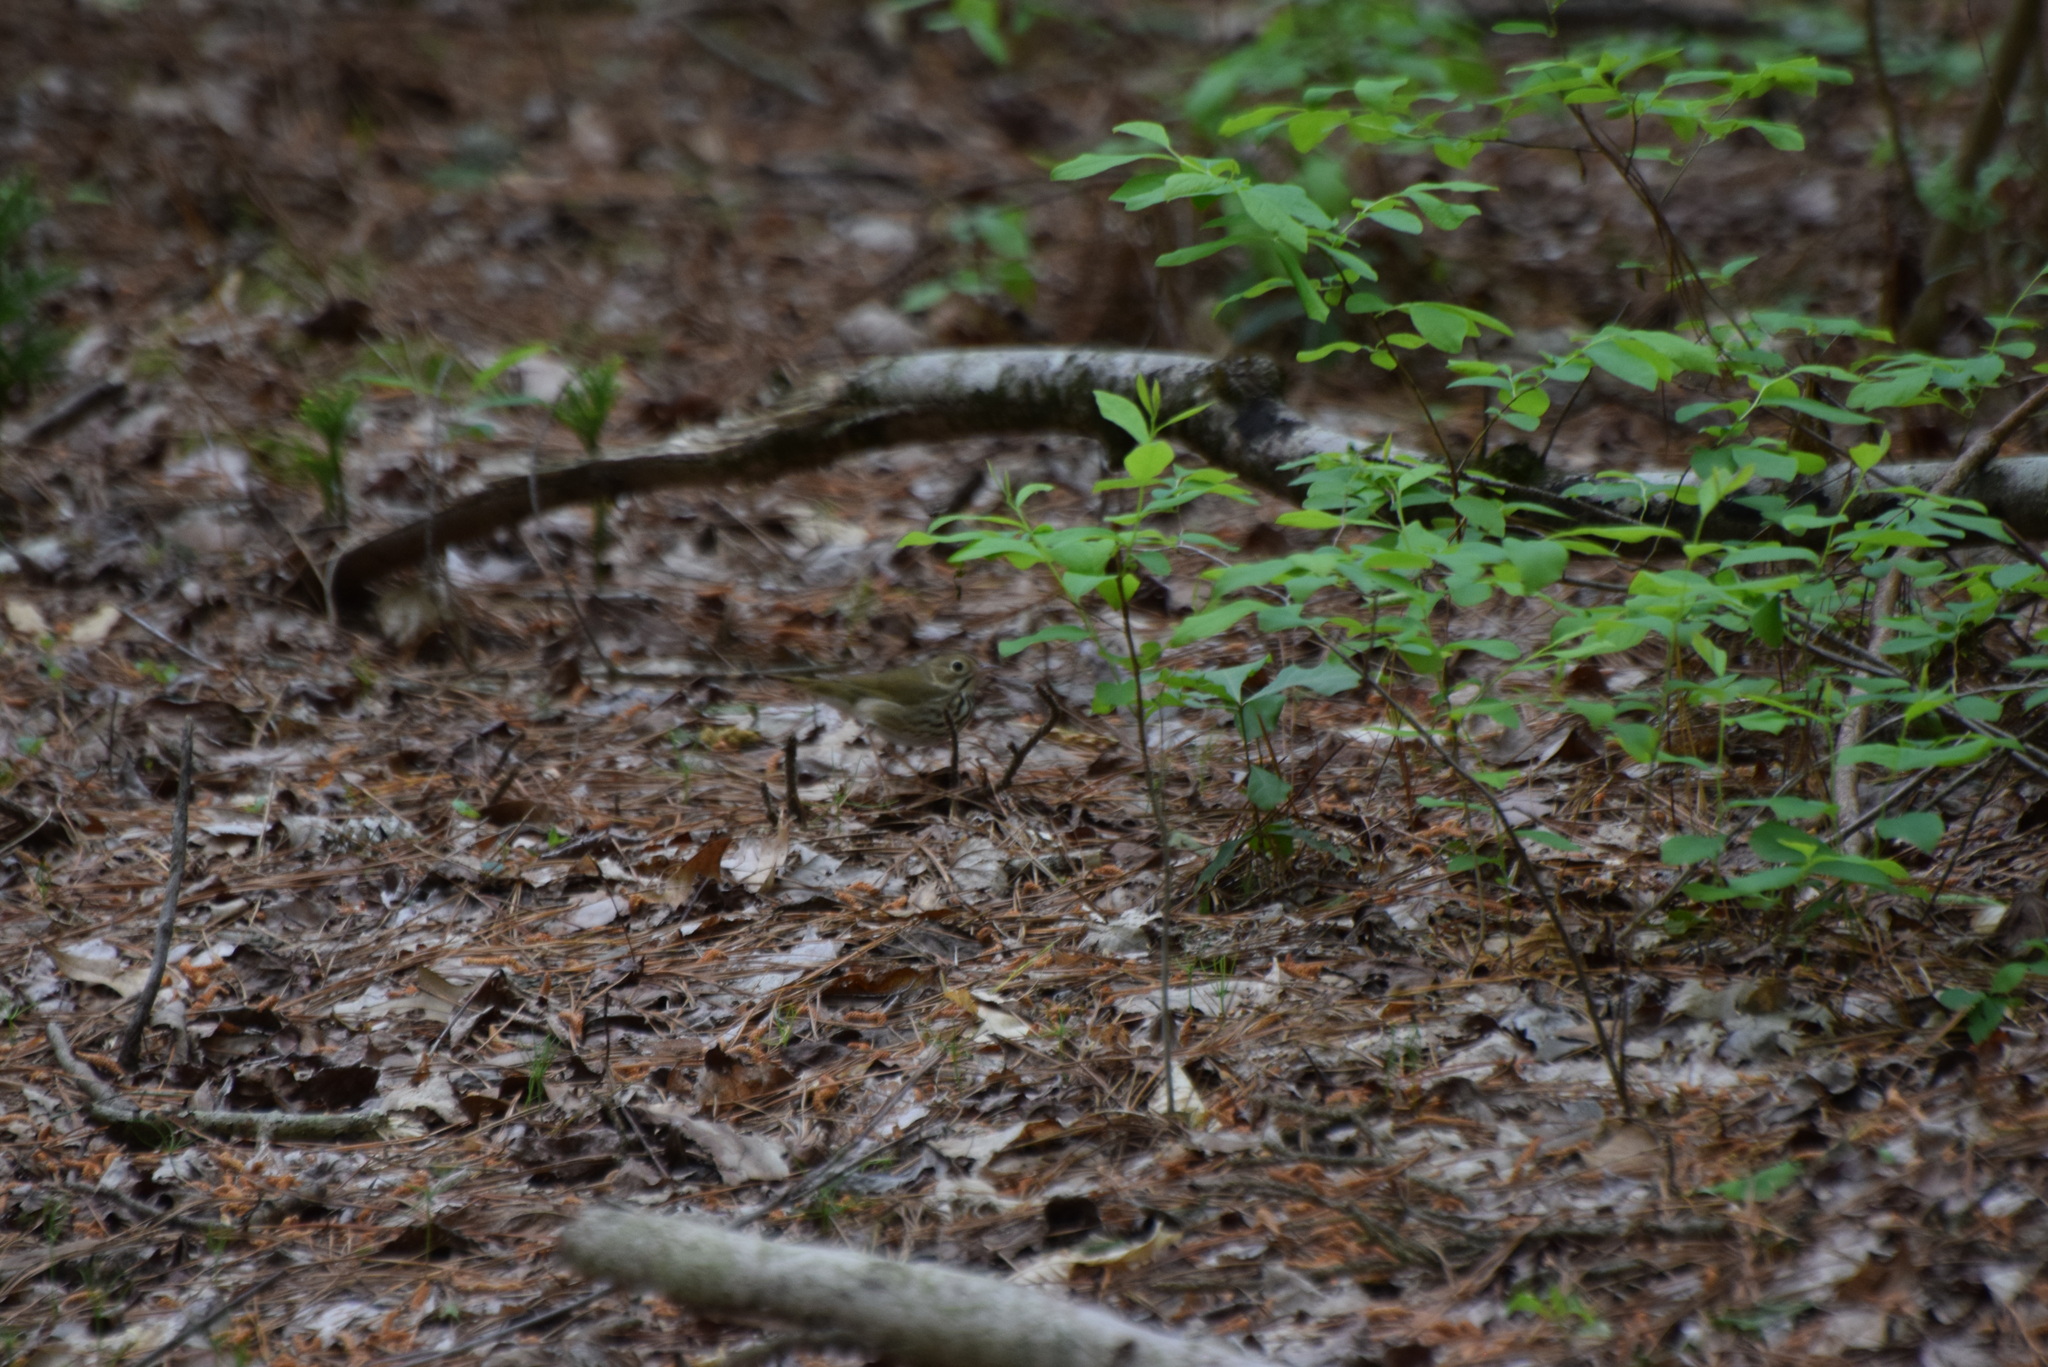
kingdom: Animalia
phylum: Chordata
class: Aves
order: Passeriformes
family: Parulidae
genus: Seiurus
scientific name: Seiurus aurocapilla
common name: Ovenbird
